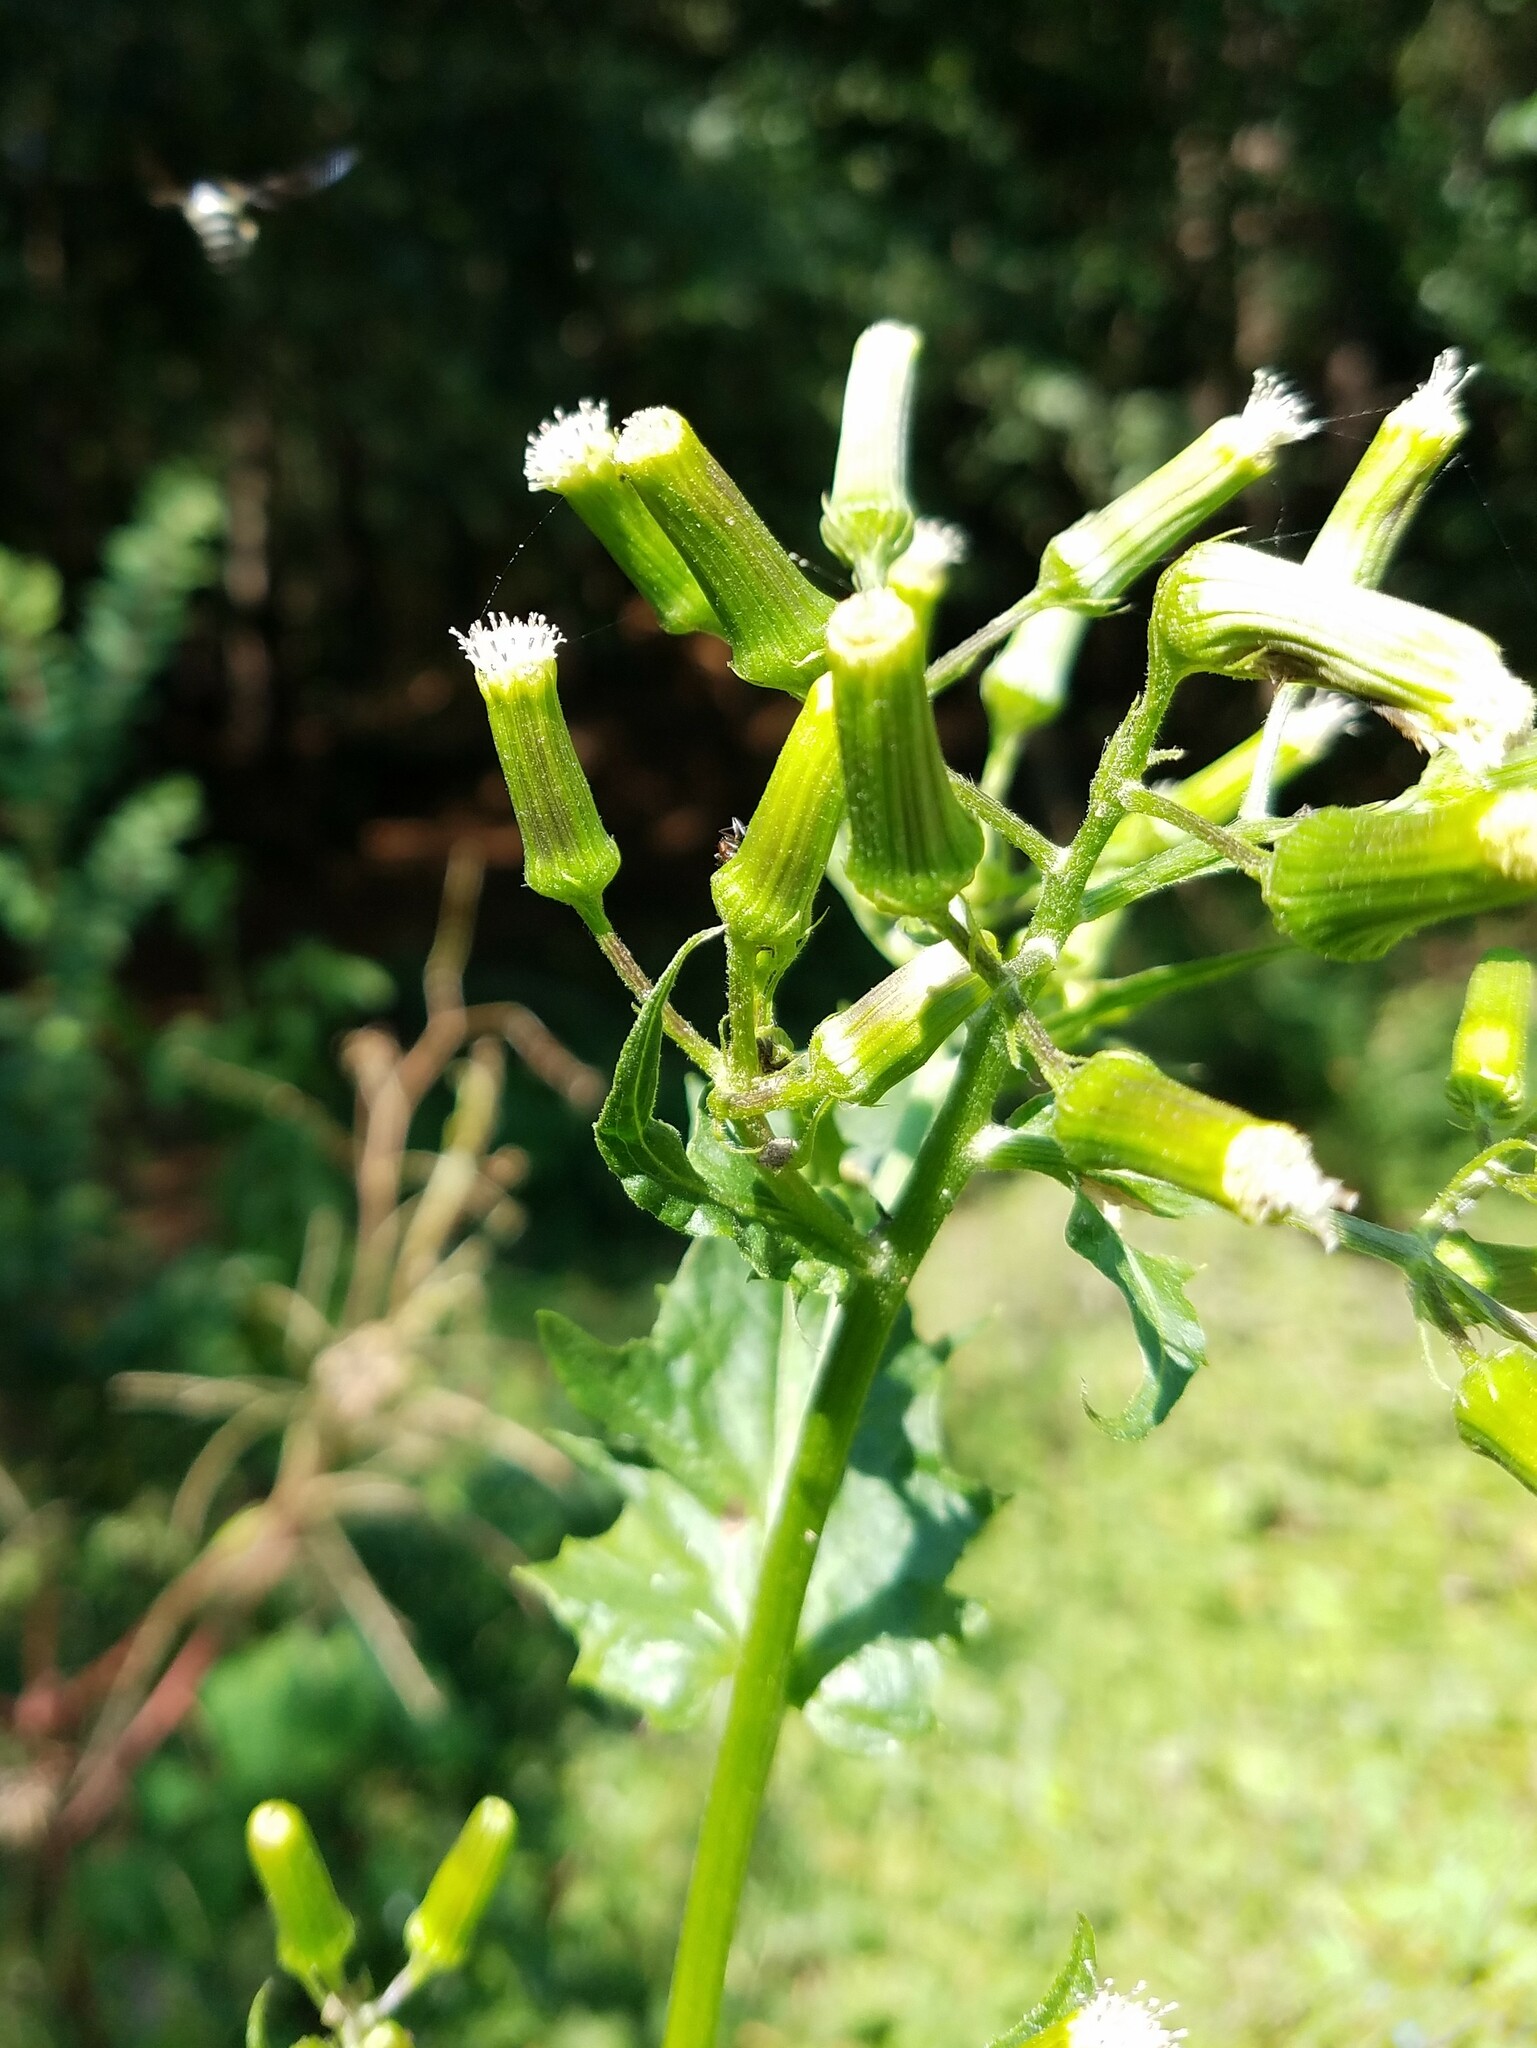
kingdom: Plantae
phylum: Tracheophyta
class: Magnoliopsida
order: Asterales
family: Asteraceae
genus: Erechtites
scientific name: Erechtites hieraciifolius
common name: American burnweed
